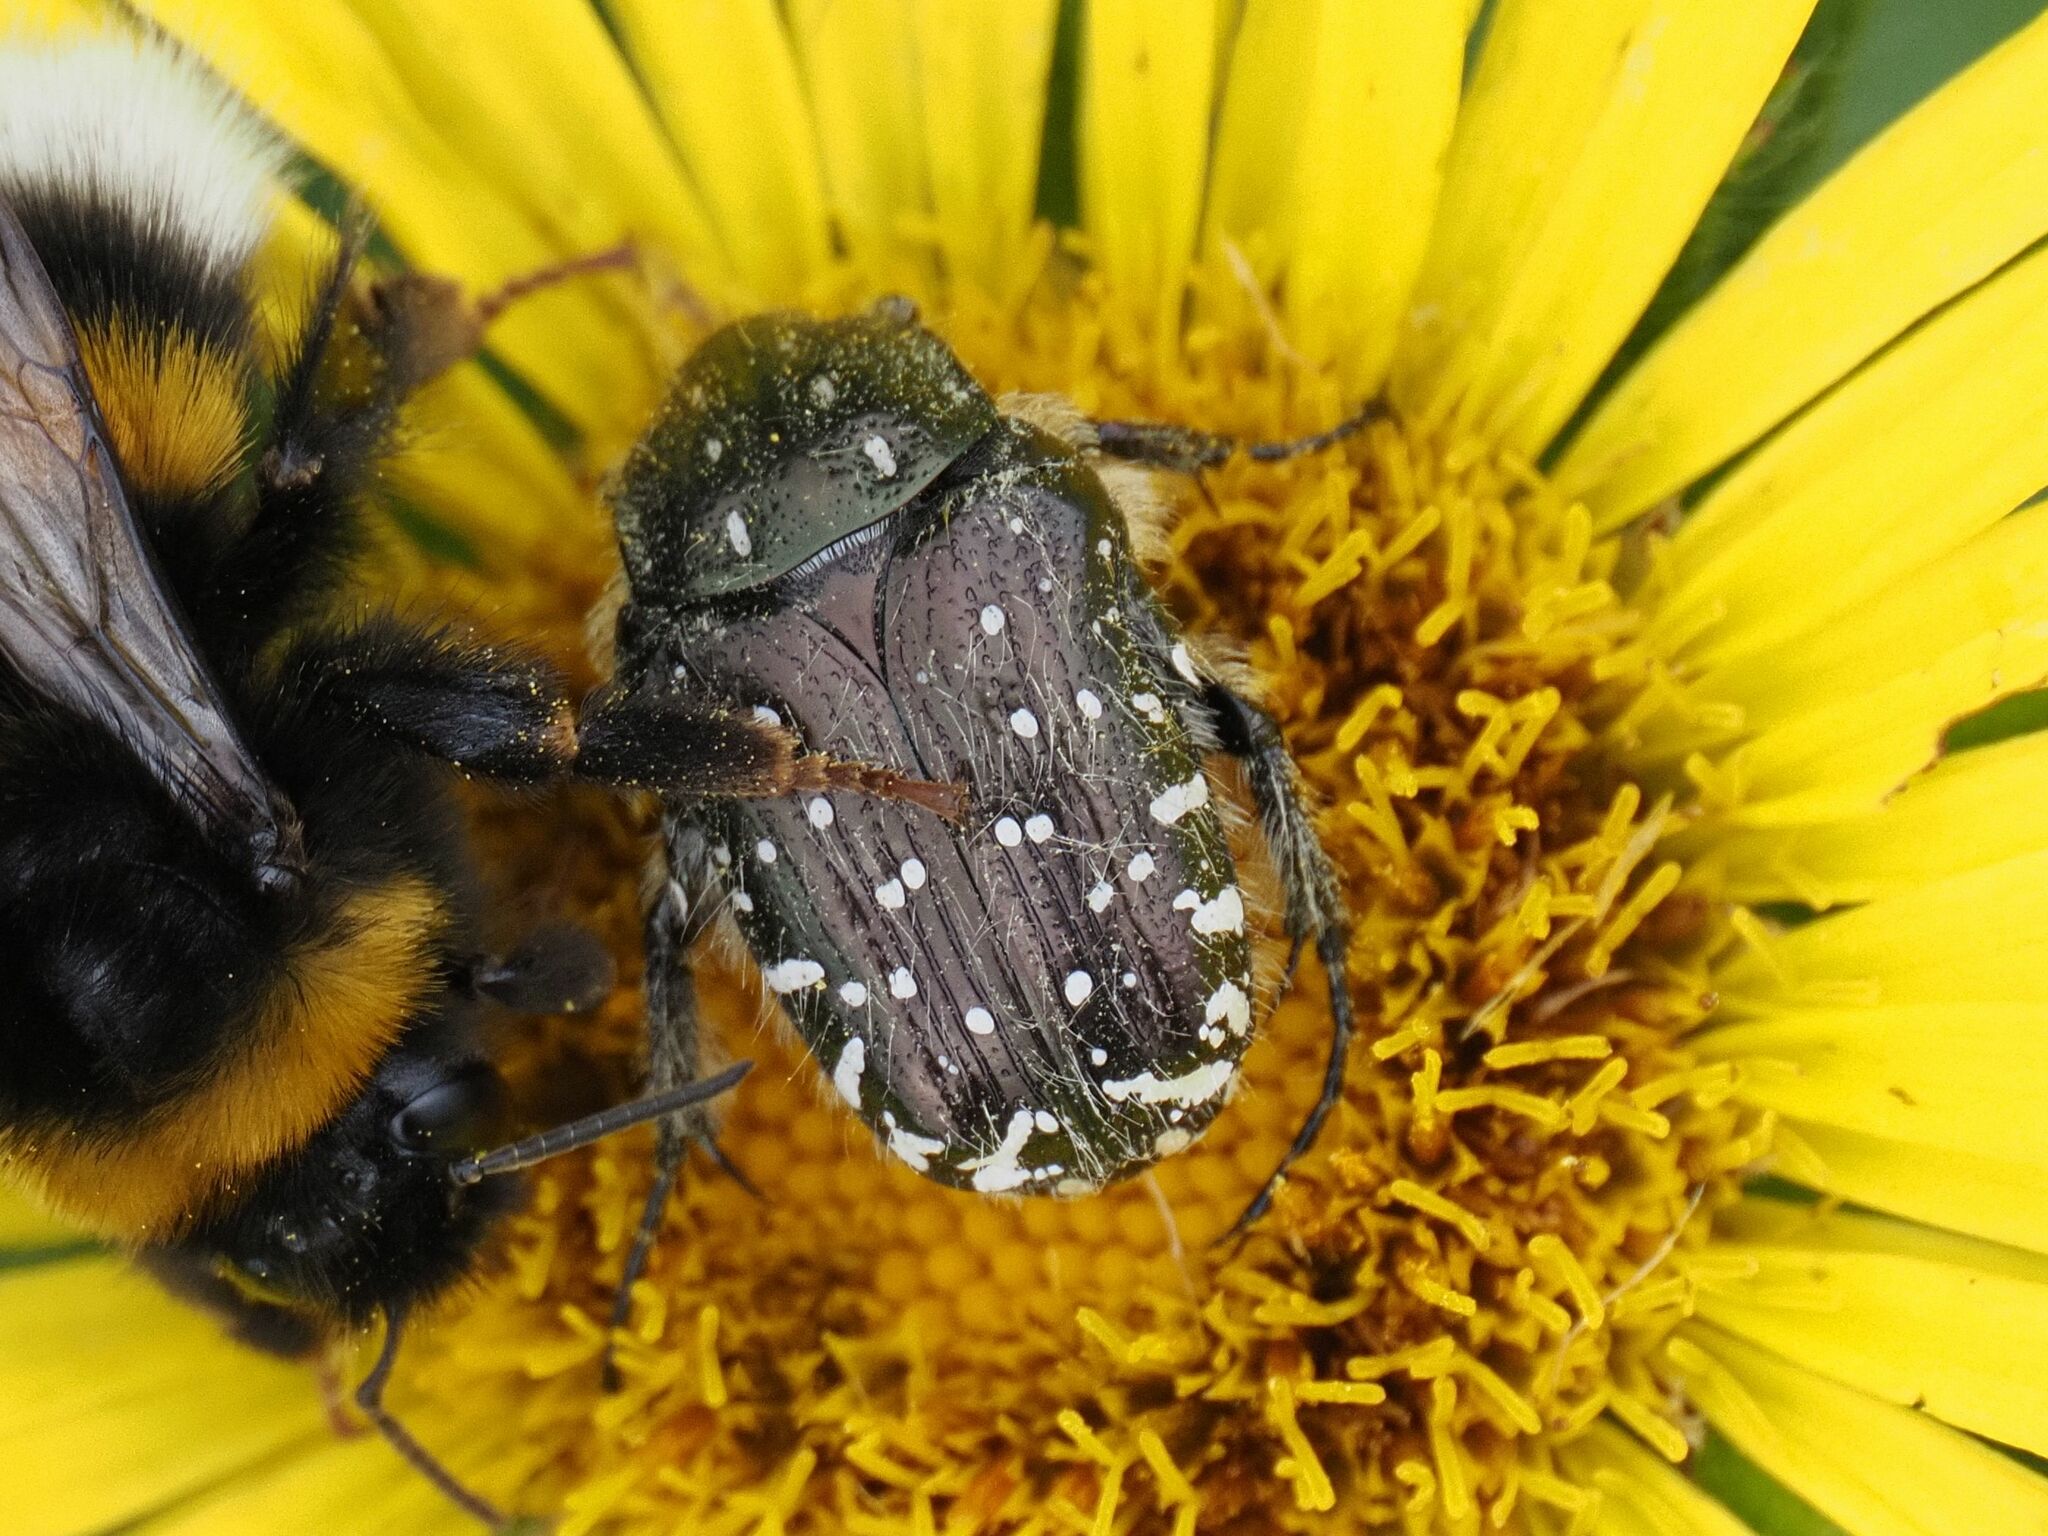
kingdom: Animalia
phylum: Arthropoda
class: Insecta
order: Coleoptera
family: Scarabaeidae
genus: Oxythyrea
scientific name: Oxythyrea funesta
